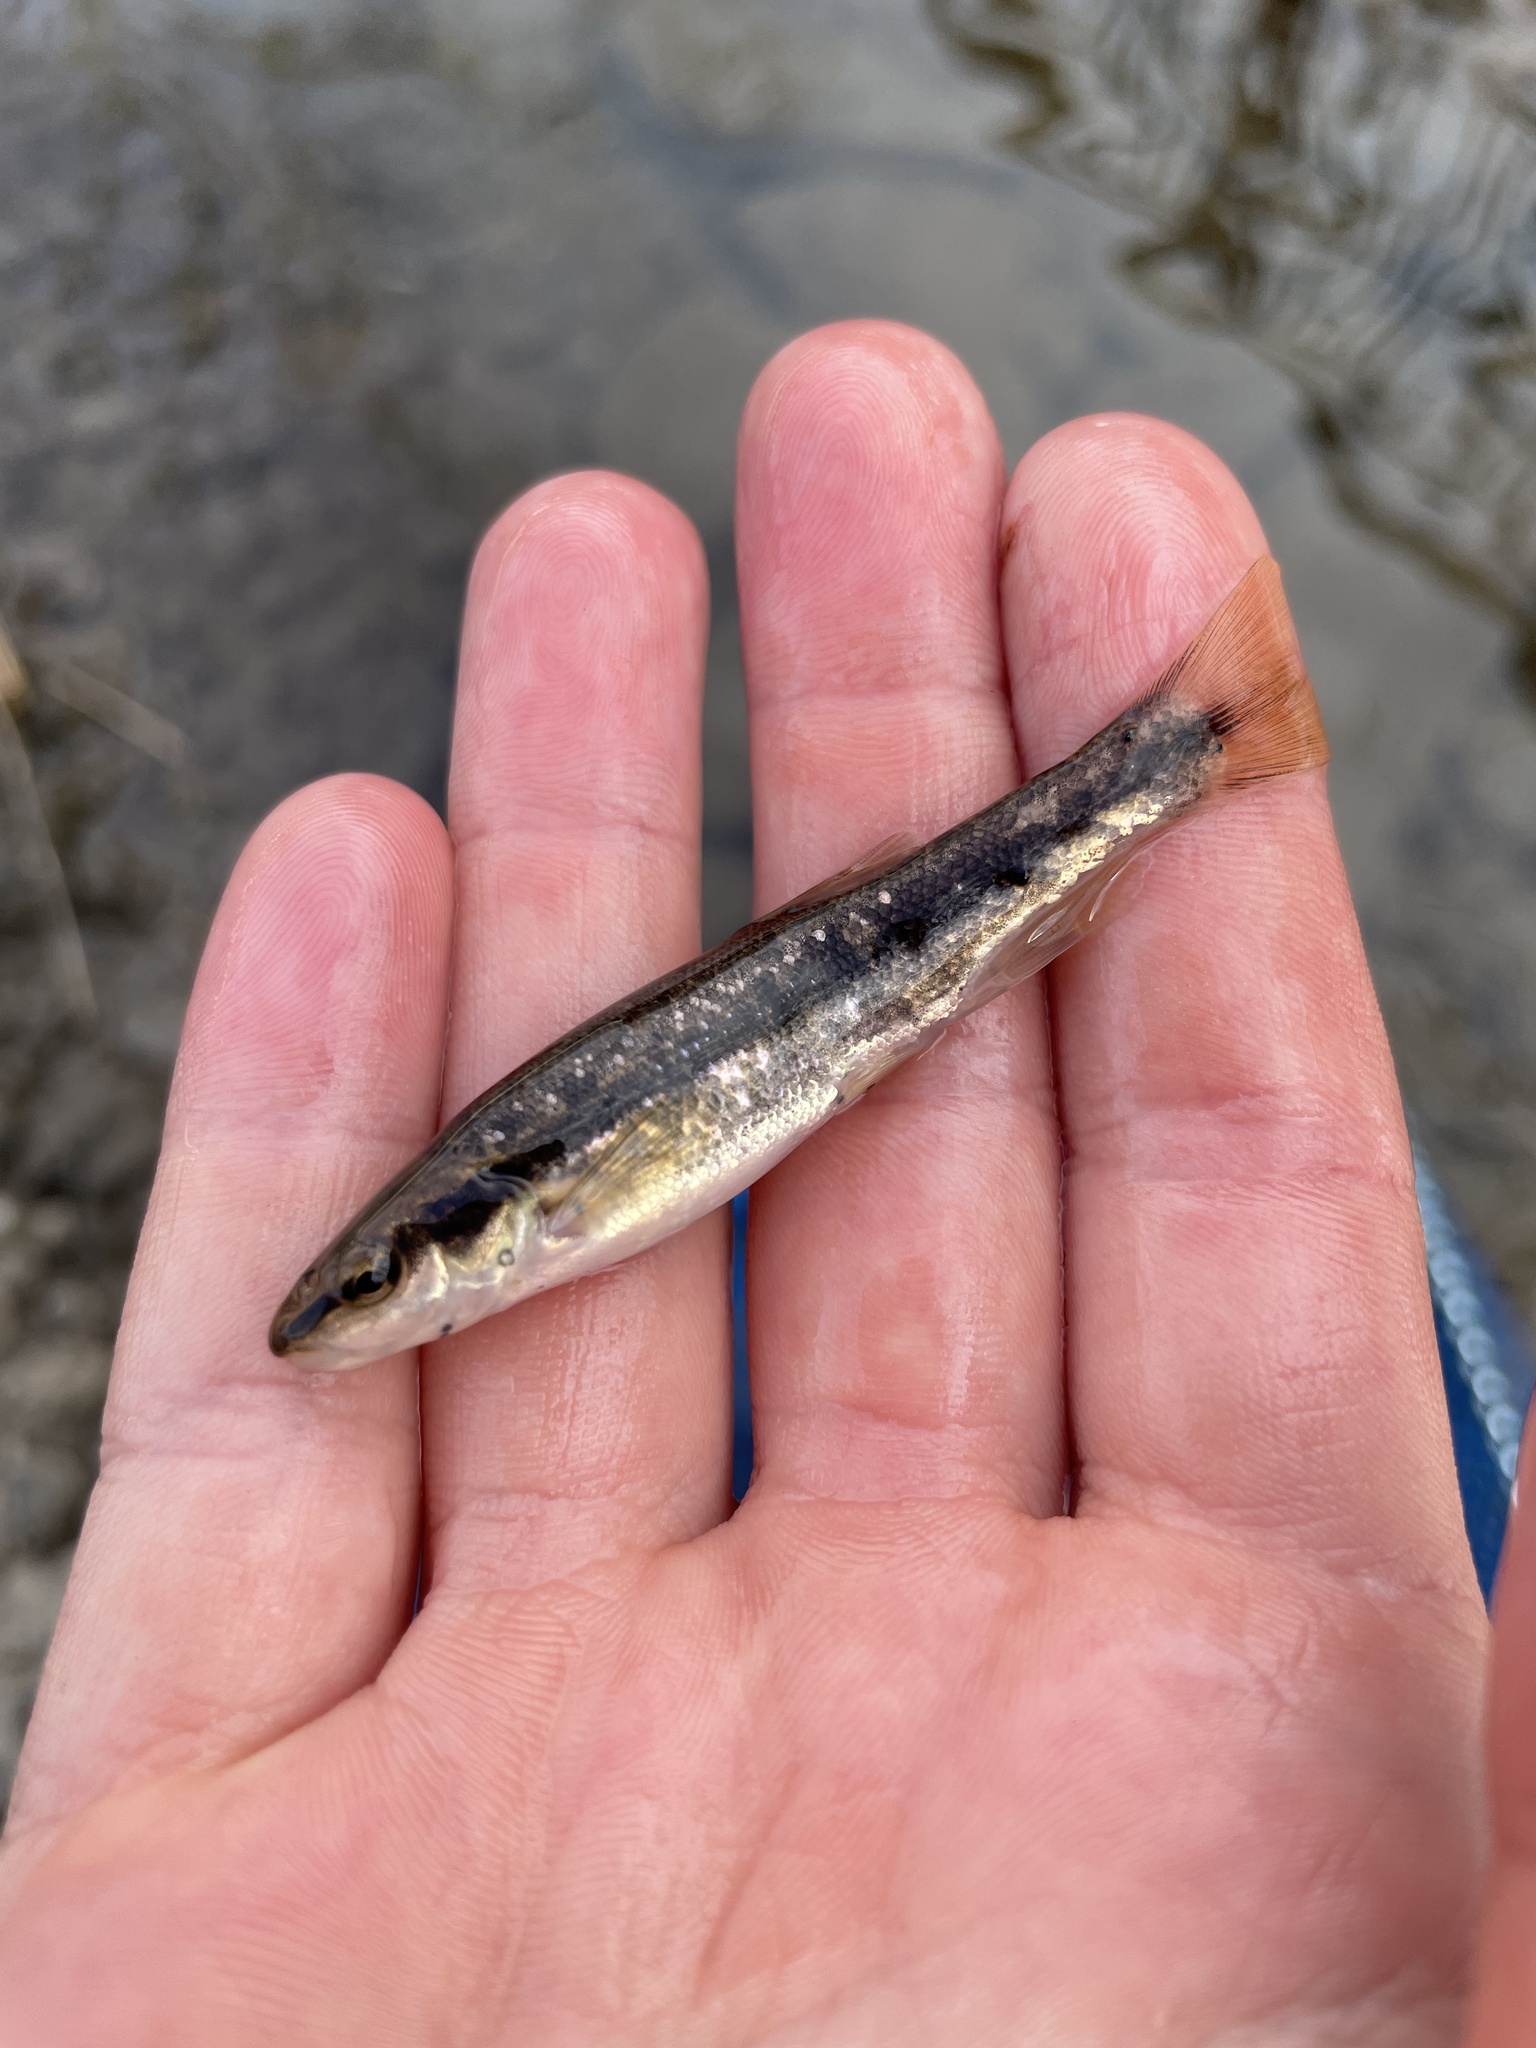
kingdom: Animalia
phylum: Platyhelminthes
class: Trematoda
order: Diplostomida
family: Diplostomidae
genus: Neascus
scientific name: Neascus
